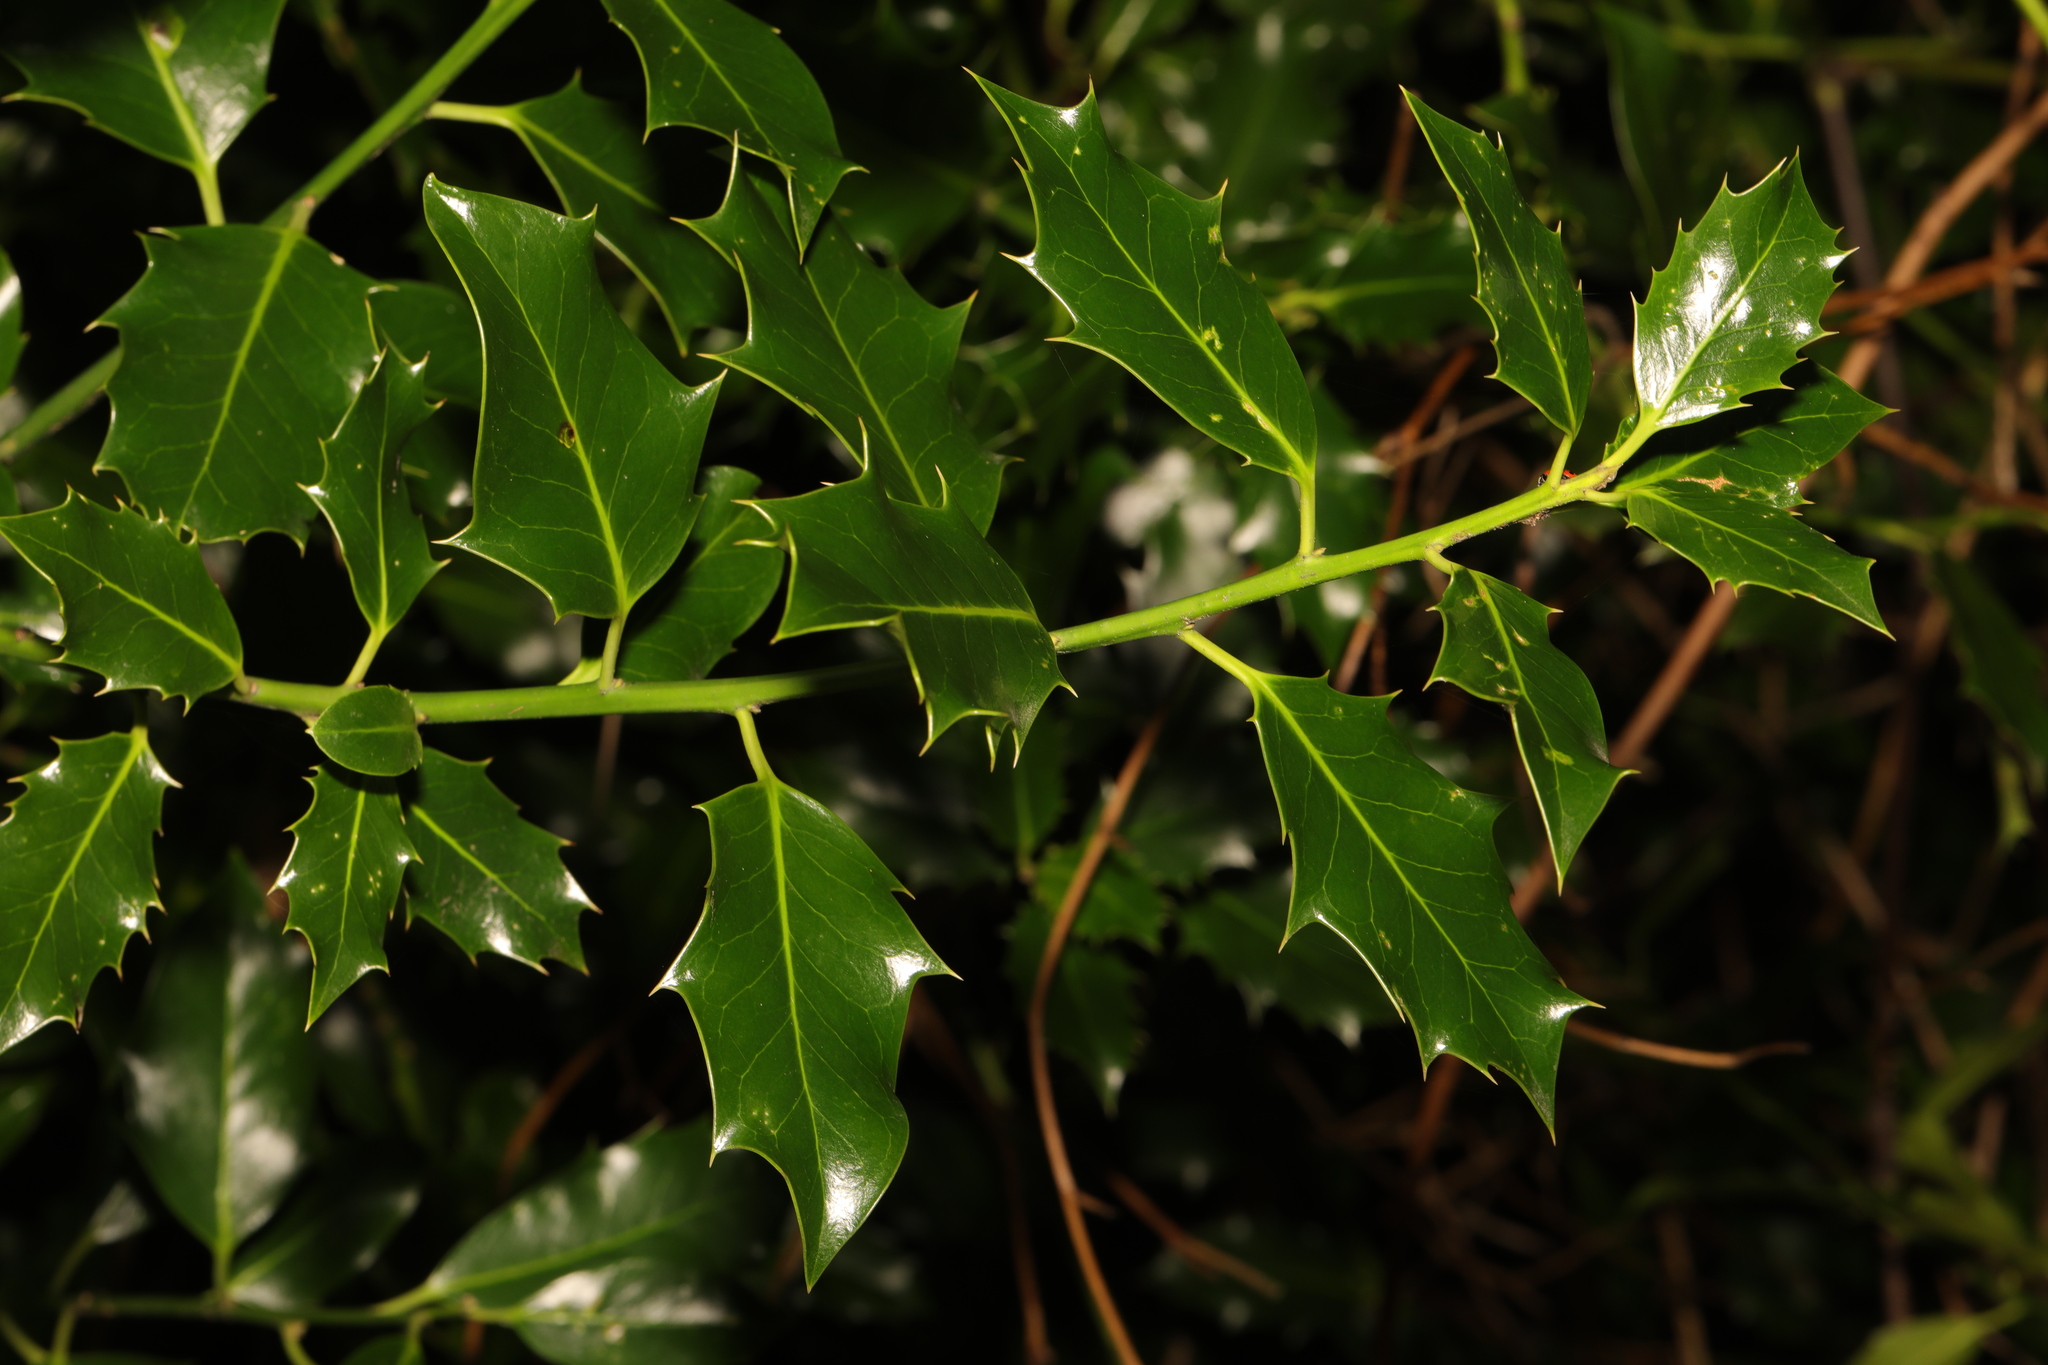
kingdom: Plantae
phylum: Tracheophyta
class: Magnoliopsida
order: Aquifoliales
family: Aquifoliaceae
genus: Ilex
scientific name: Ilex aquifolium
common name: English holly
